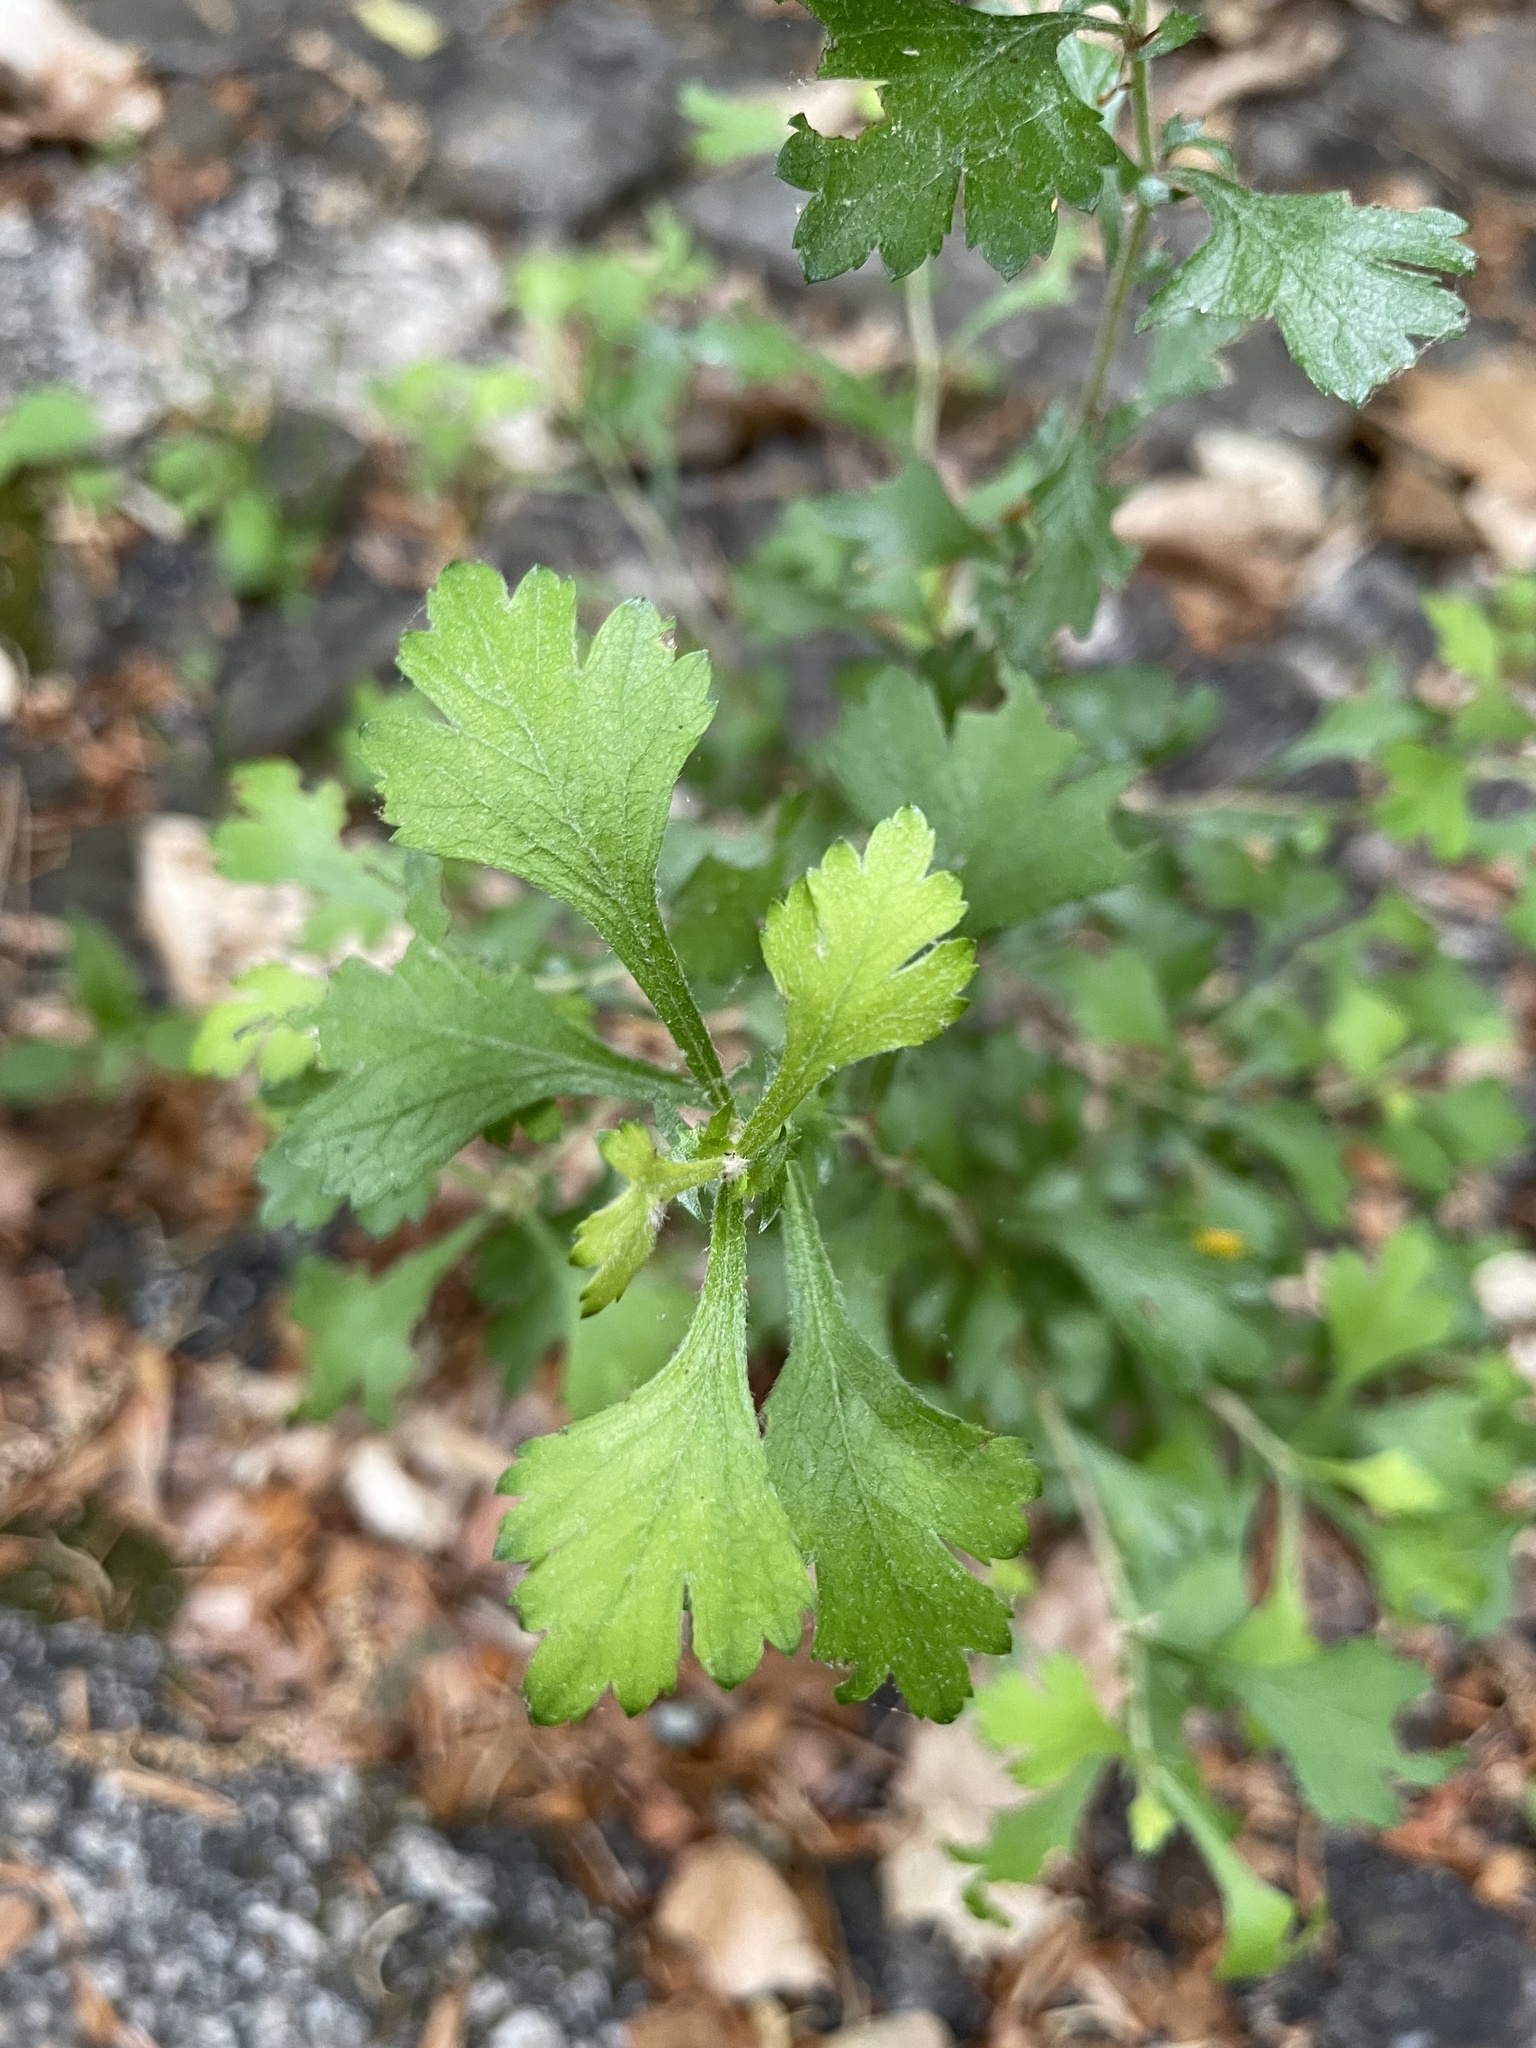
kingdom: Plantae
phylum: Tracheophyta
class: Magnoliopsida
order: Rosales
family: Rosaceae
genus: Crataegus
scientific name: Crataegus marshallii
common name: Parsley-hawthorn
